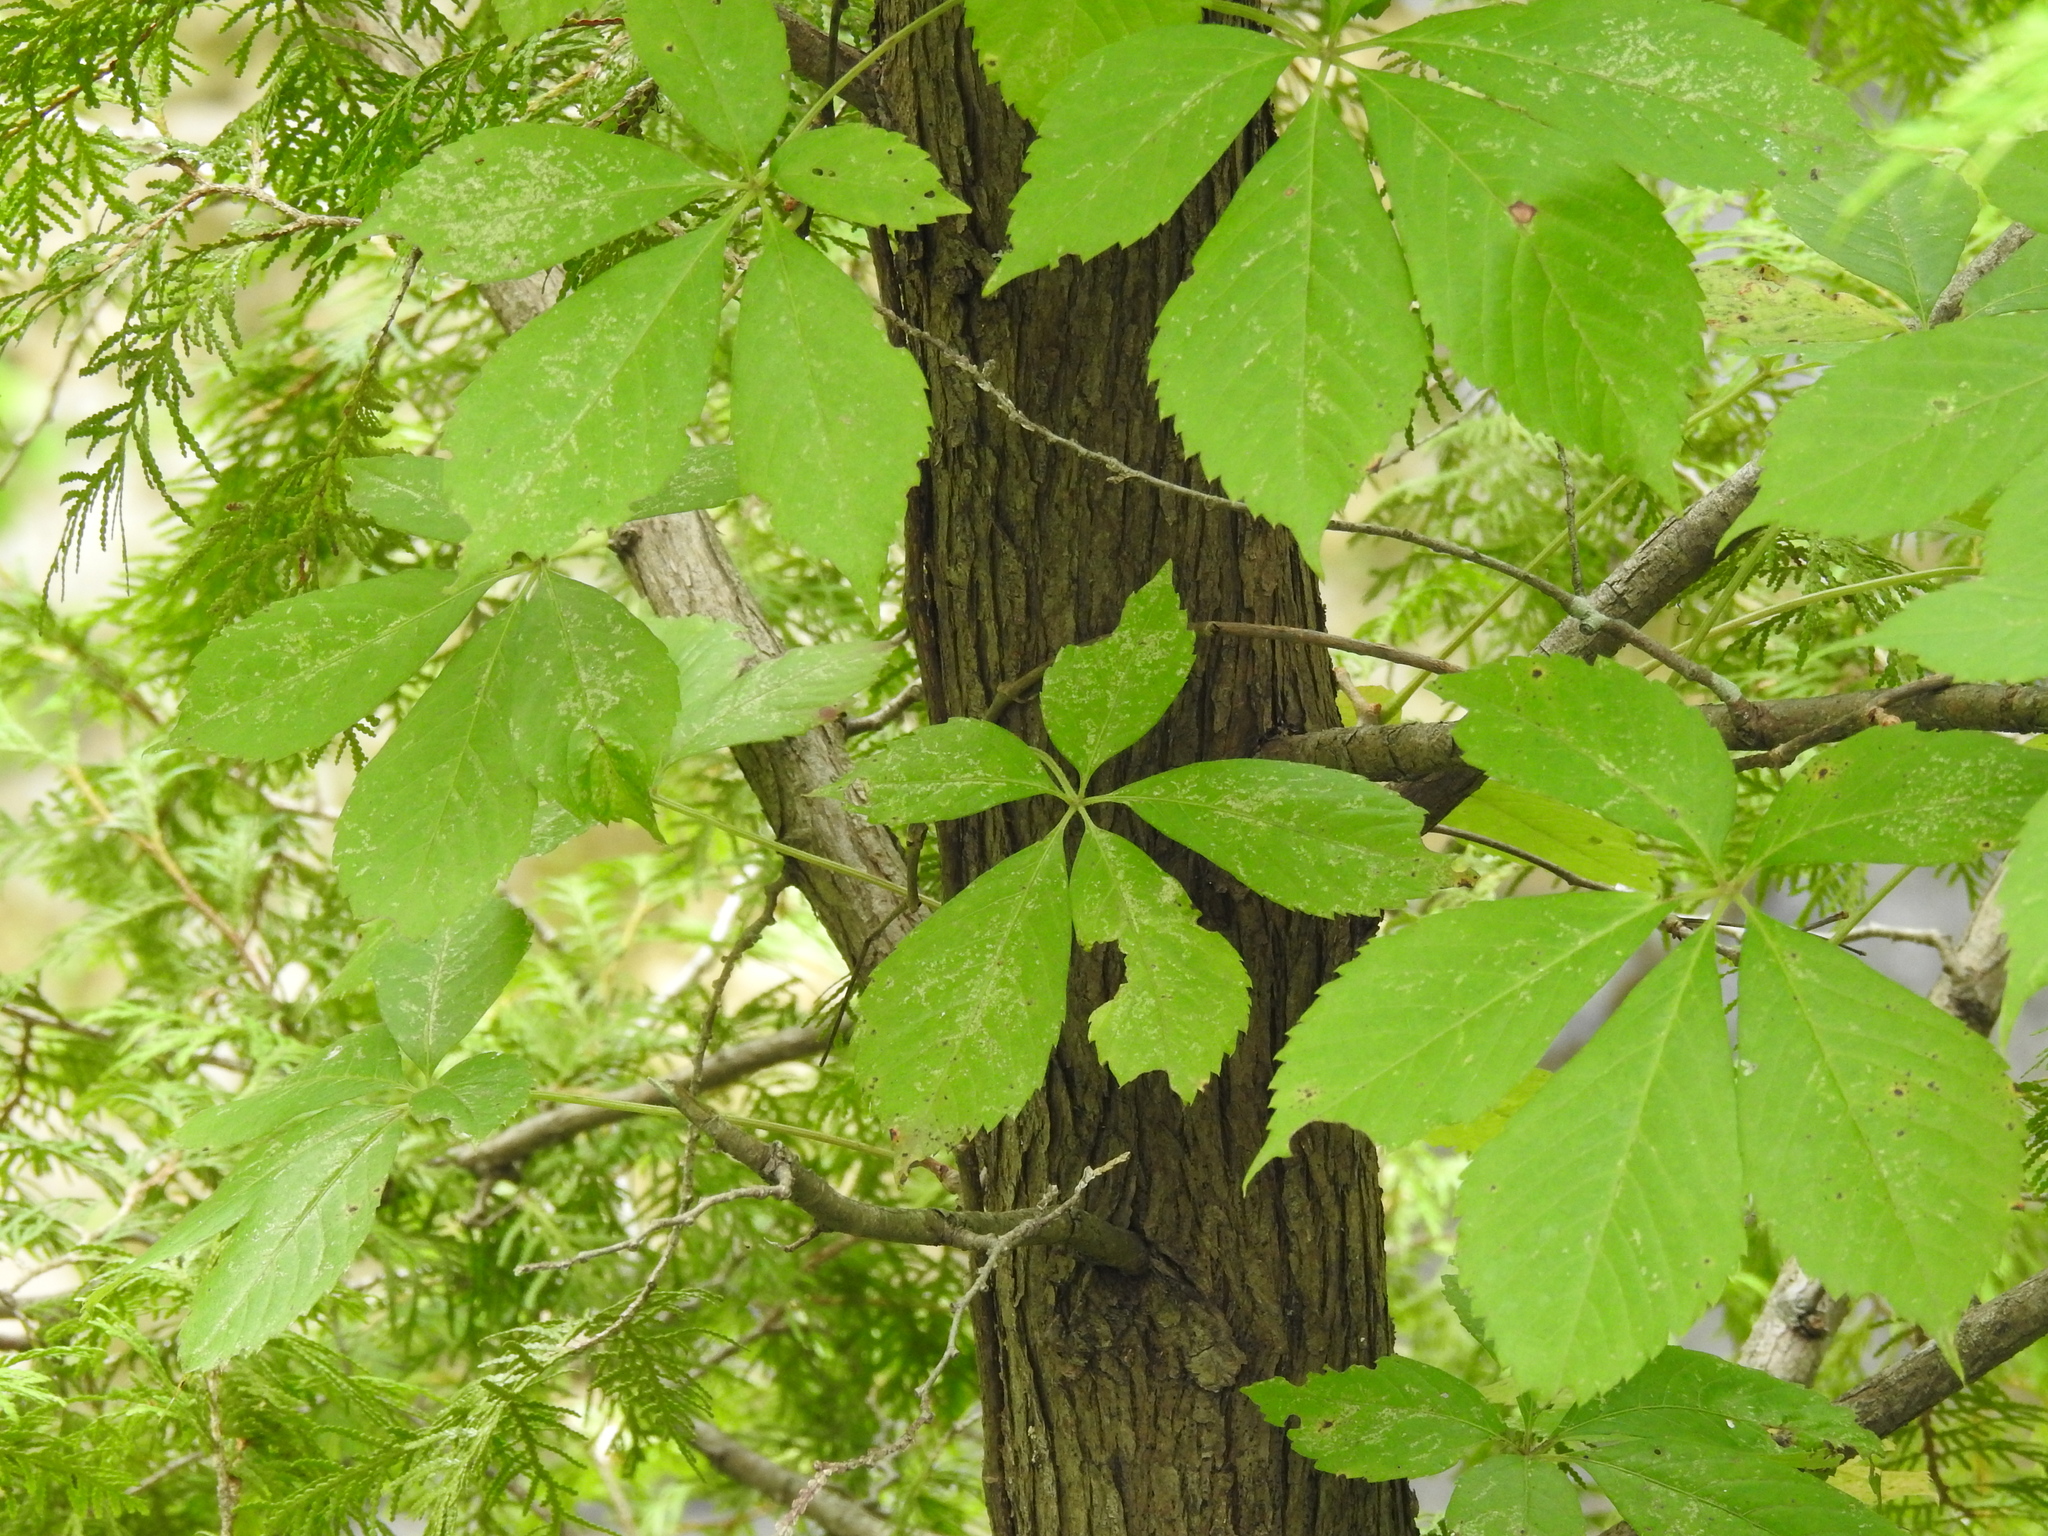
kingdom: Plantae
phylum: Tracheophyta
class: Magnoliopsida
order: Vitales
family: Vitaceae
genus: Parthenocissus
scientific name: Parthenocissus quinquefolia
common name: Virginia-creeper
